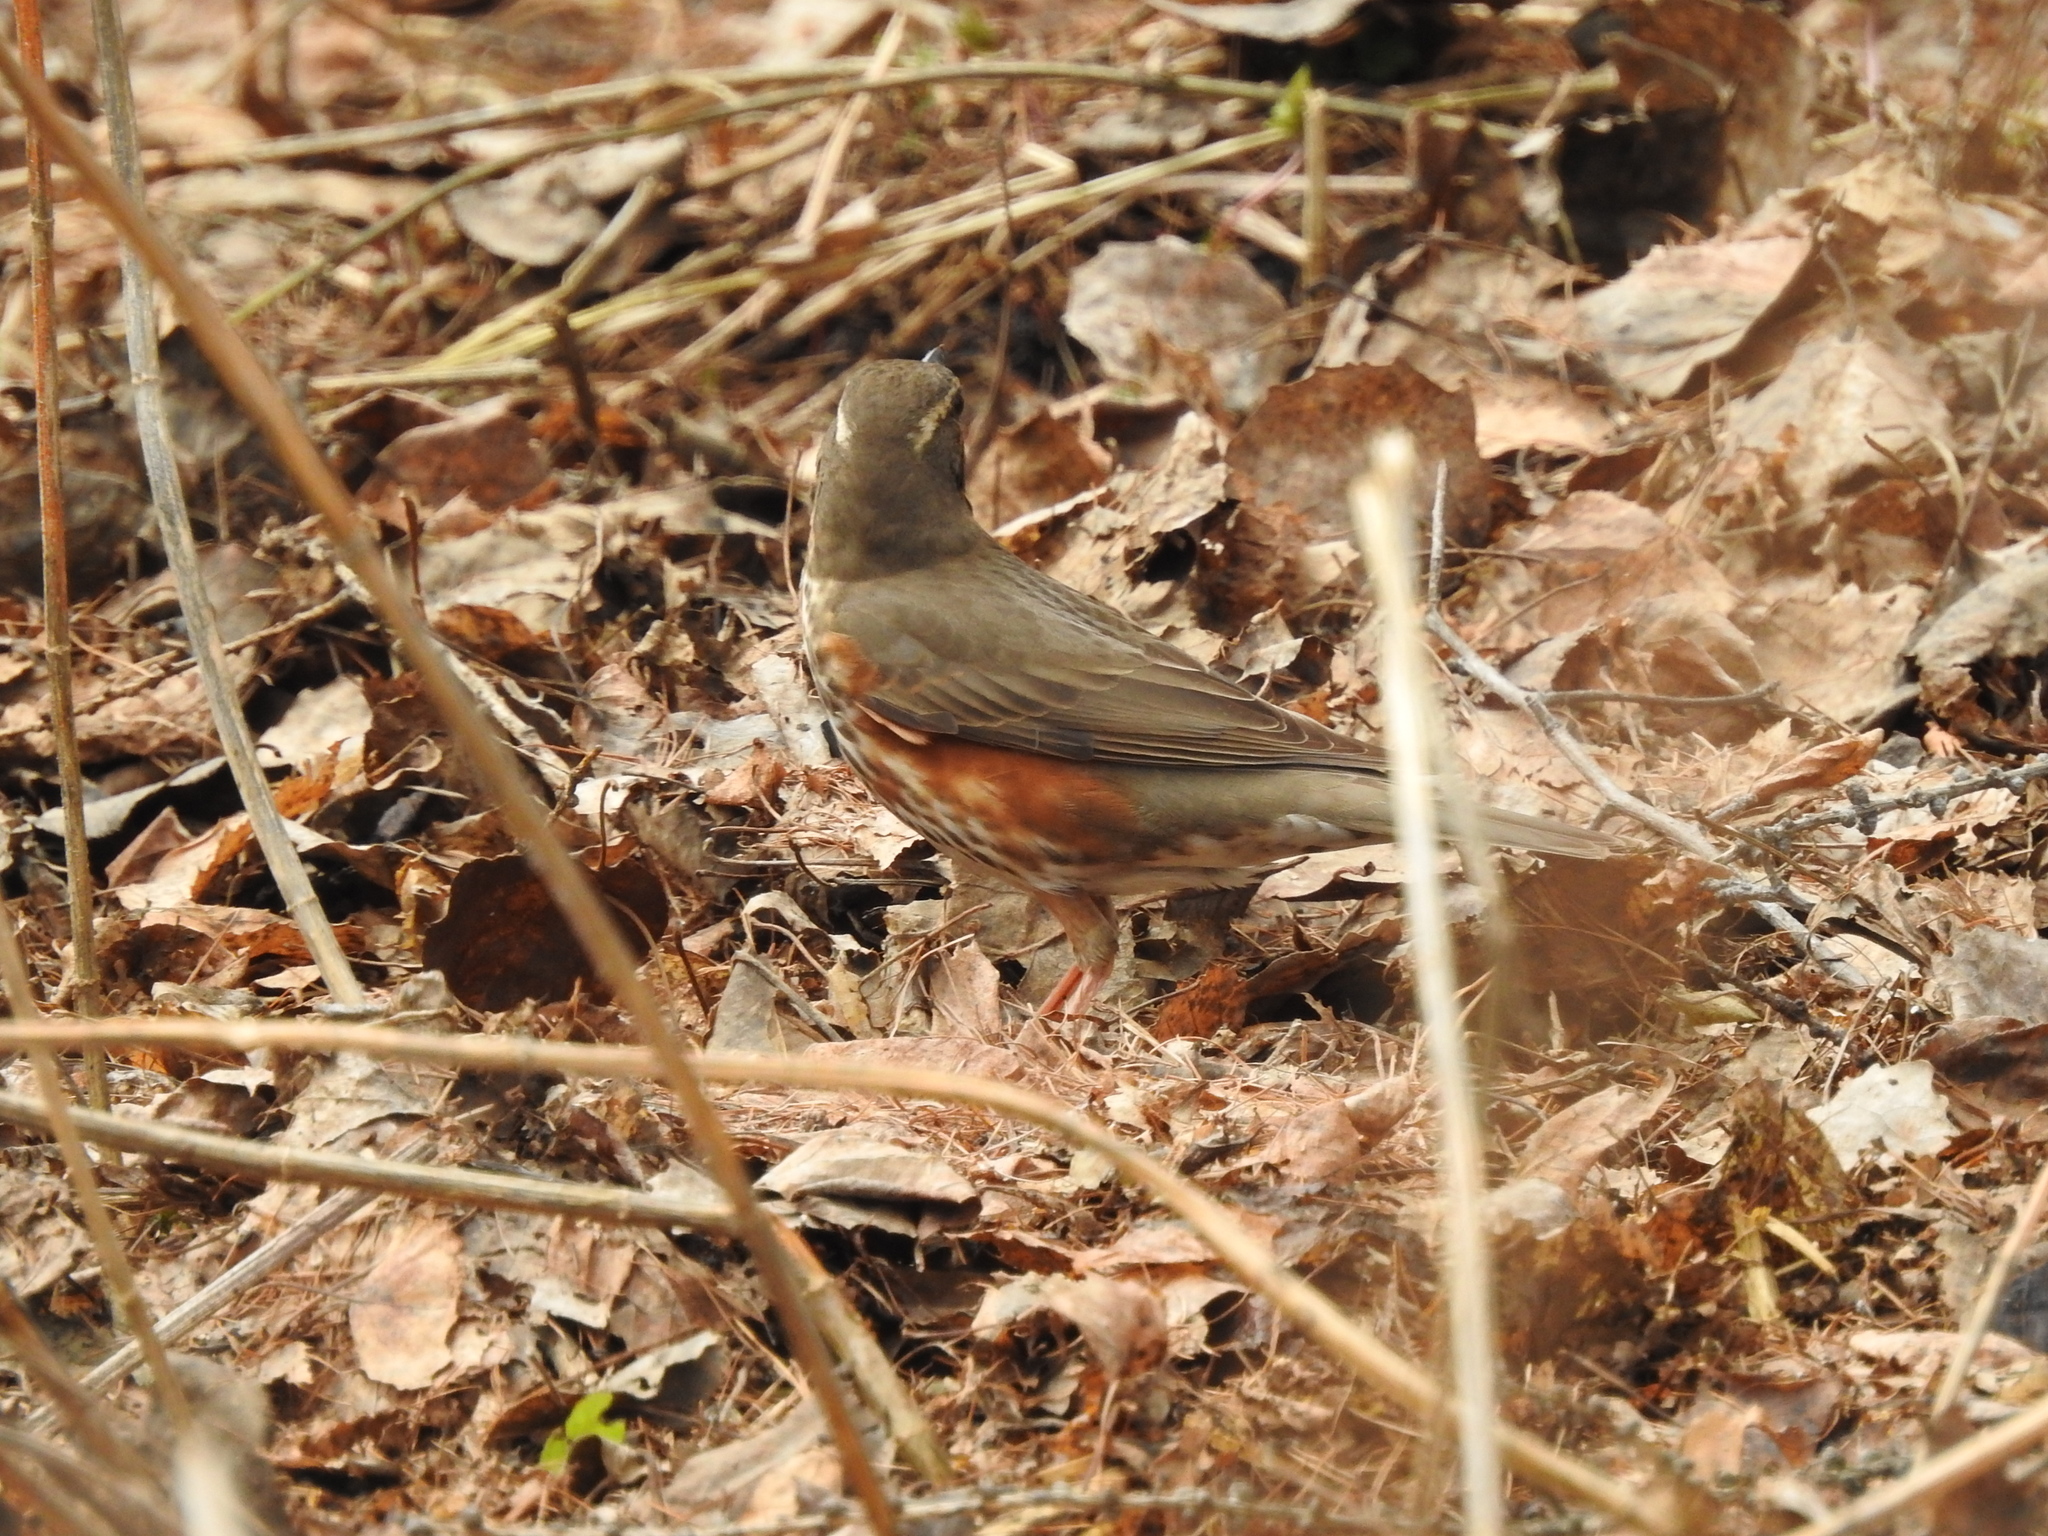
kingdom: Animalia
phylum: Chordata
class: Aves
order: Passeriformes
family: Turdidae
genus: Turdus
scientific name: Turdus iliacus
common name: Redwing
